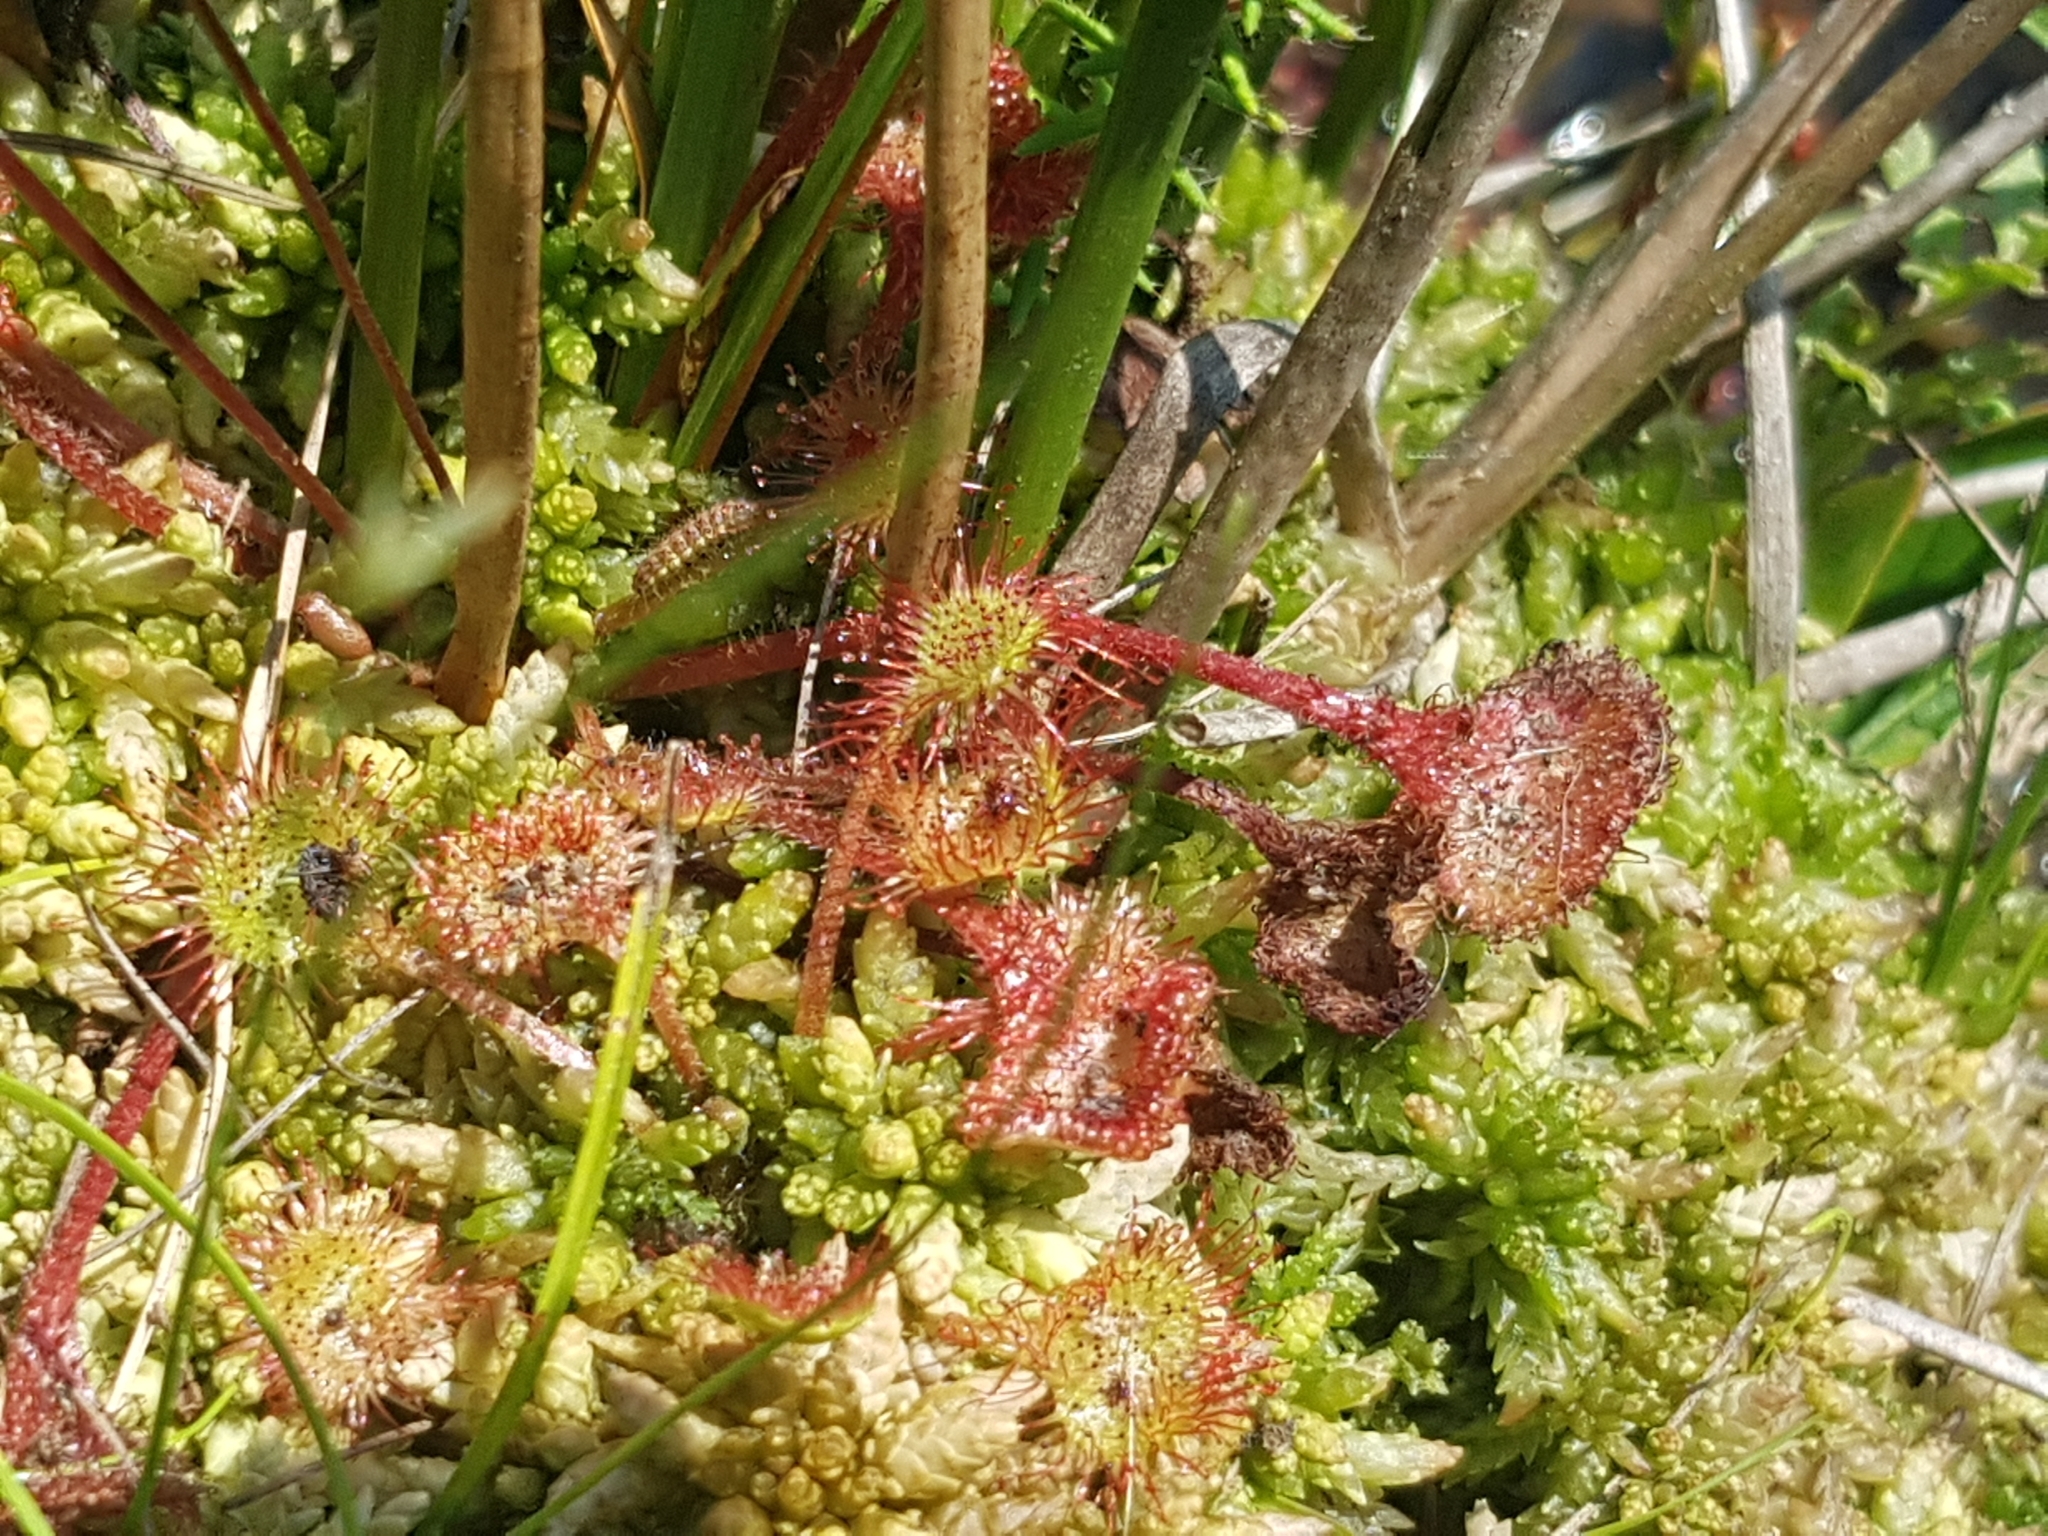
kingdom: Plantae
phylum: Tracheophyta
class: Magnoliopsida
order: Caryophyllales
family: Droseraceae
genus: Drosera
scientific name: Drosera rotundifolia
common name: Round-leaved sundew
